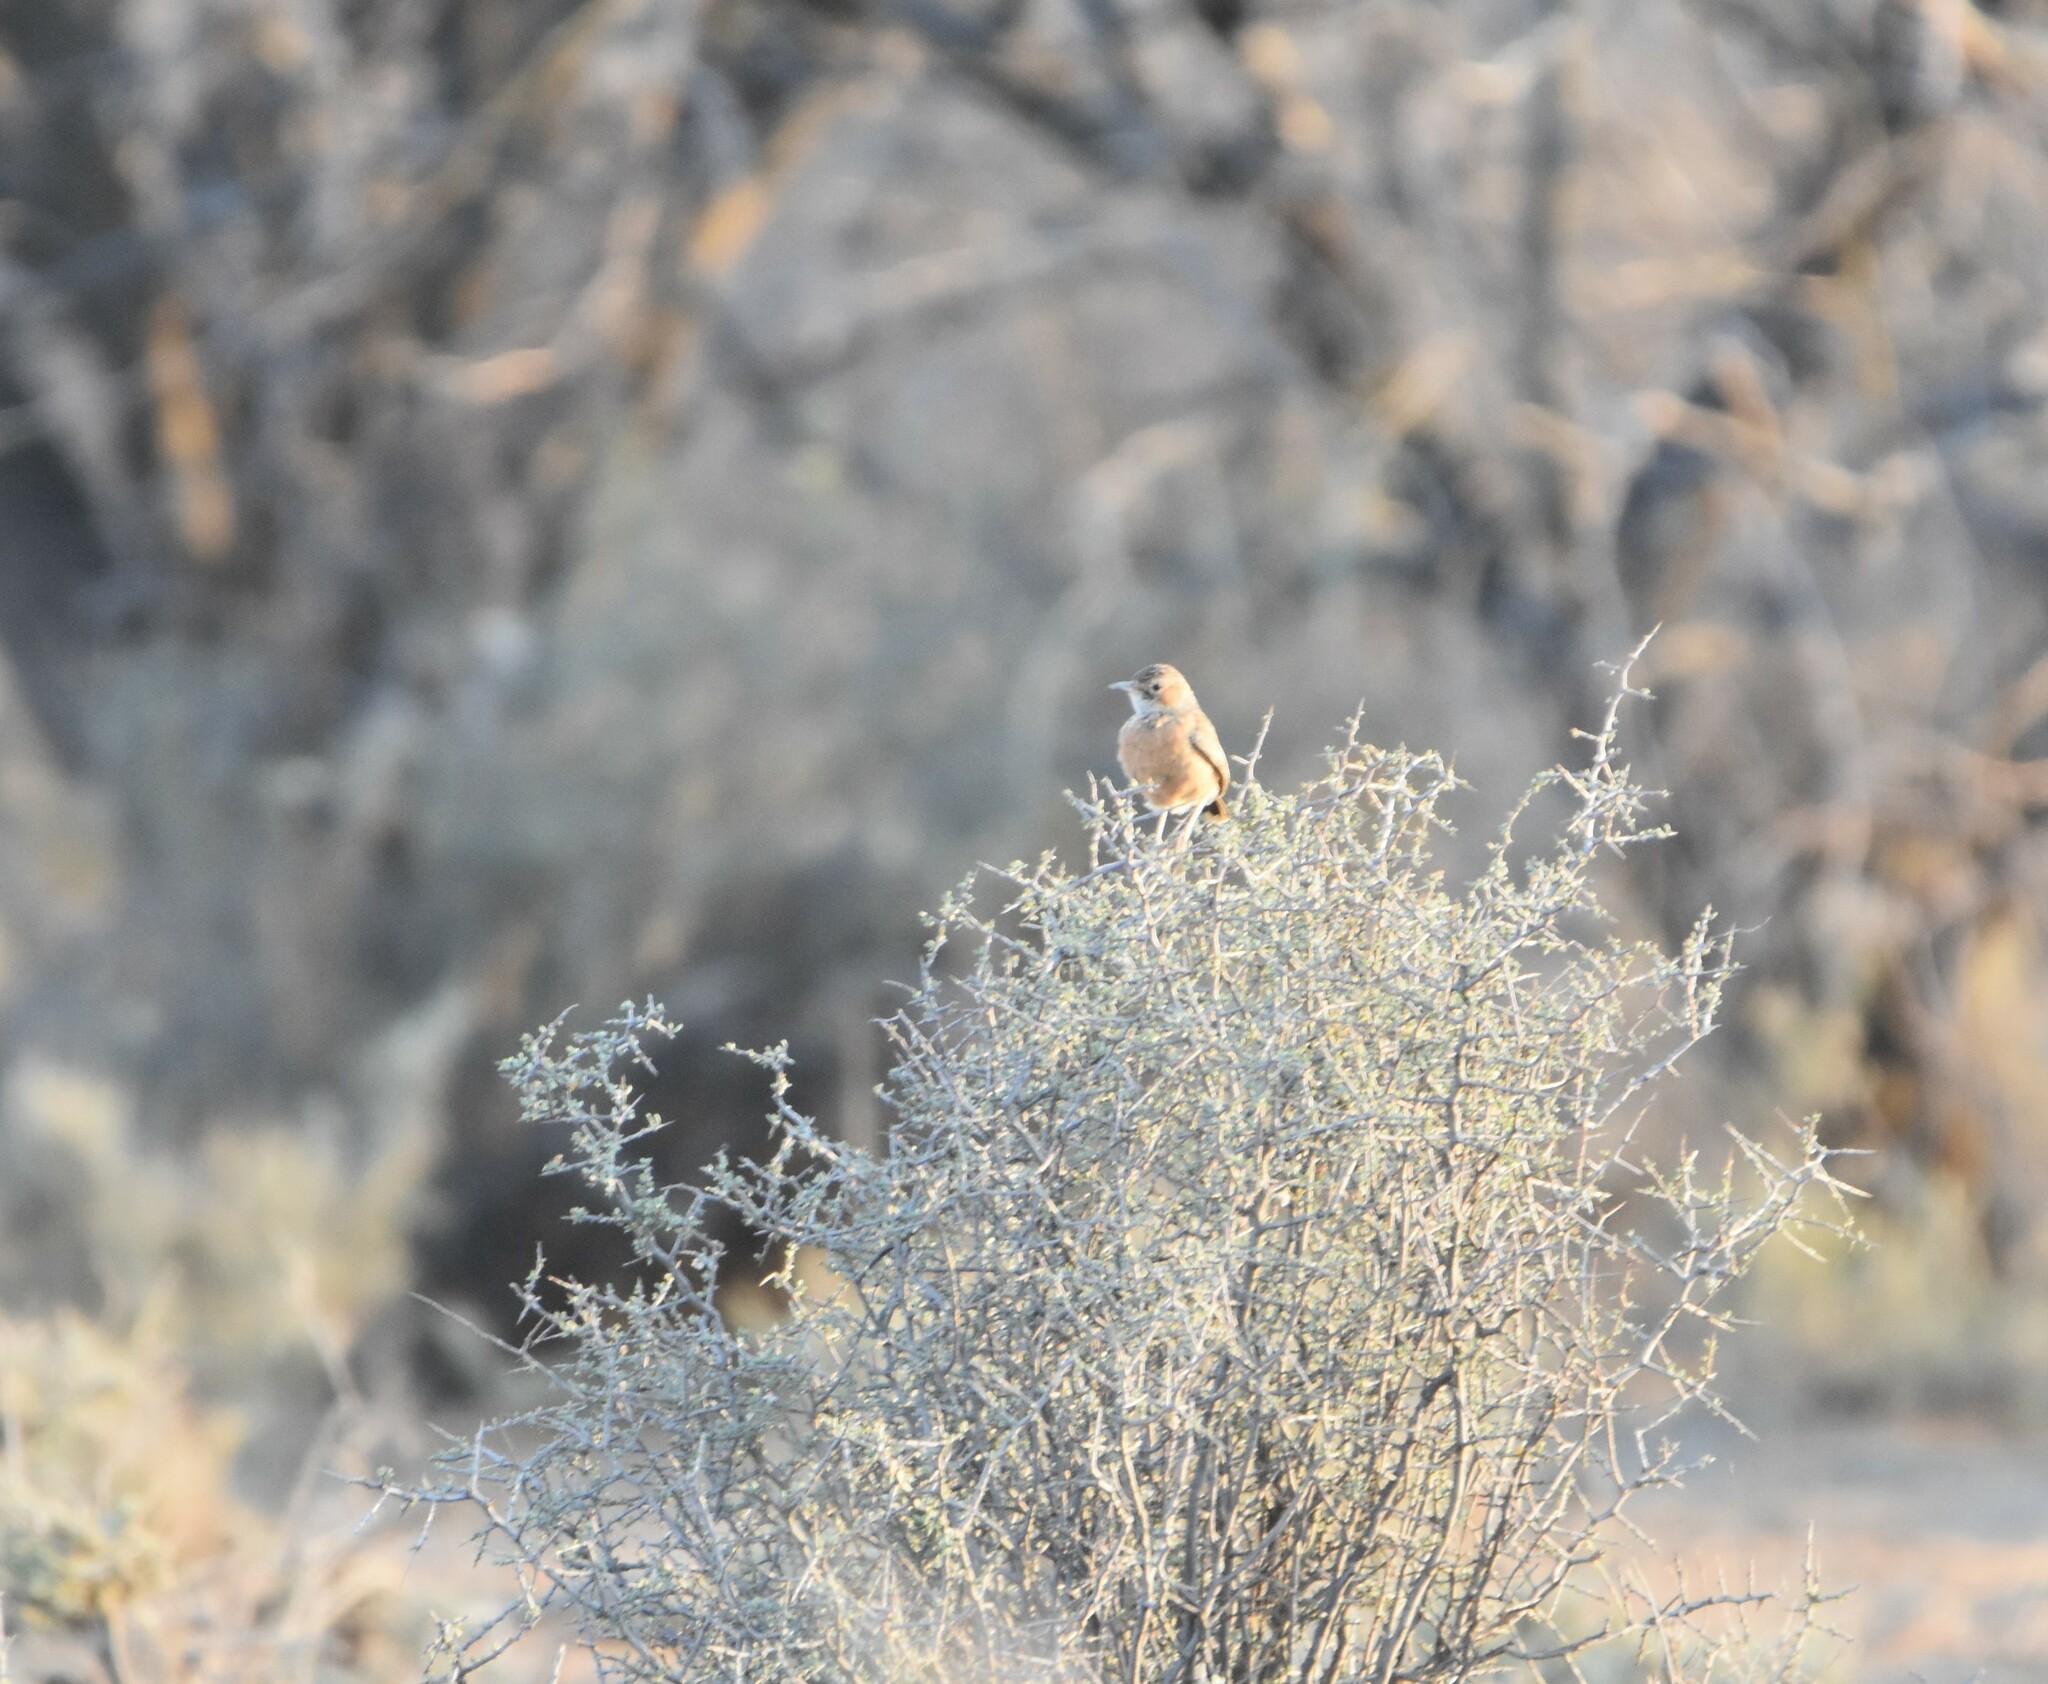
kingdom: Animalia
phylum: Chordata
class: Aves
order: Passeriformes
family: Alaudidae
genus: Chersomanes
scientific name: Chersomanes albofasciata
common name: Spike-heeled lark
